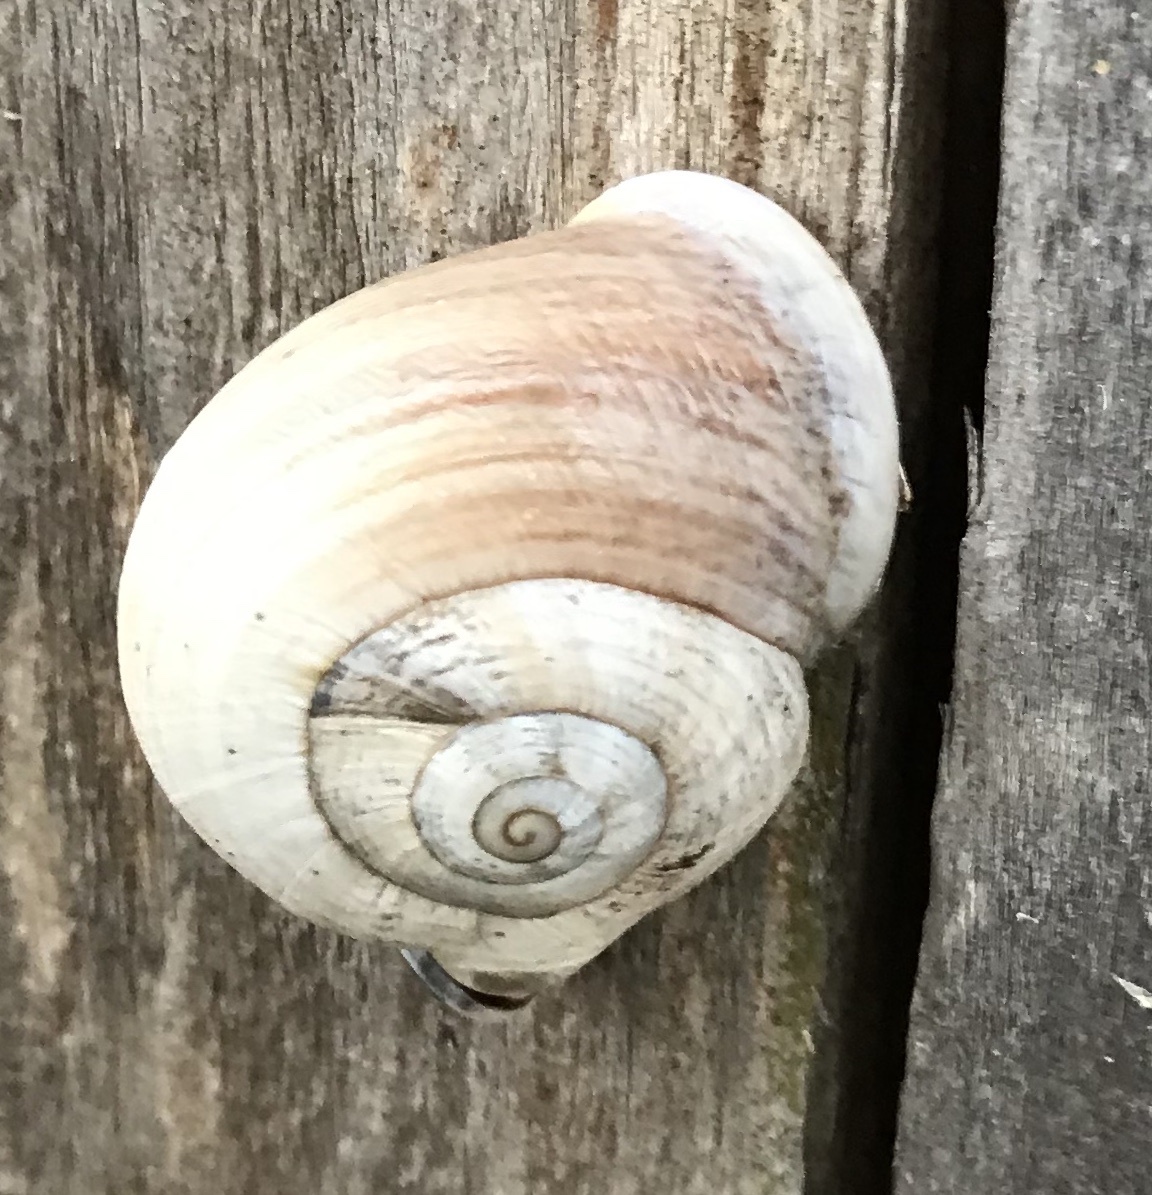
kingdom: Animalia
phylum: Mollusca
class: Gastropoda
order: Stylommatophora
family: Helicidae
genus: Otala
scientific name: Otala lactea
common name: Milk snail
